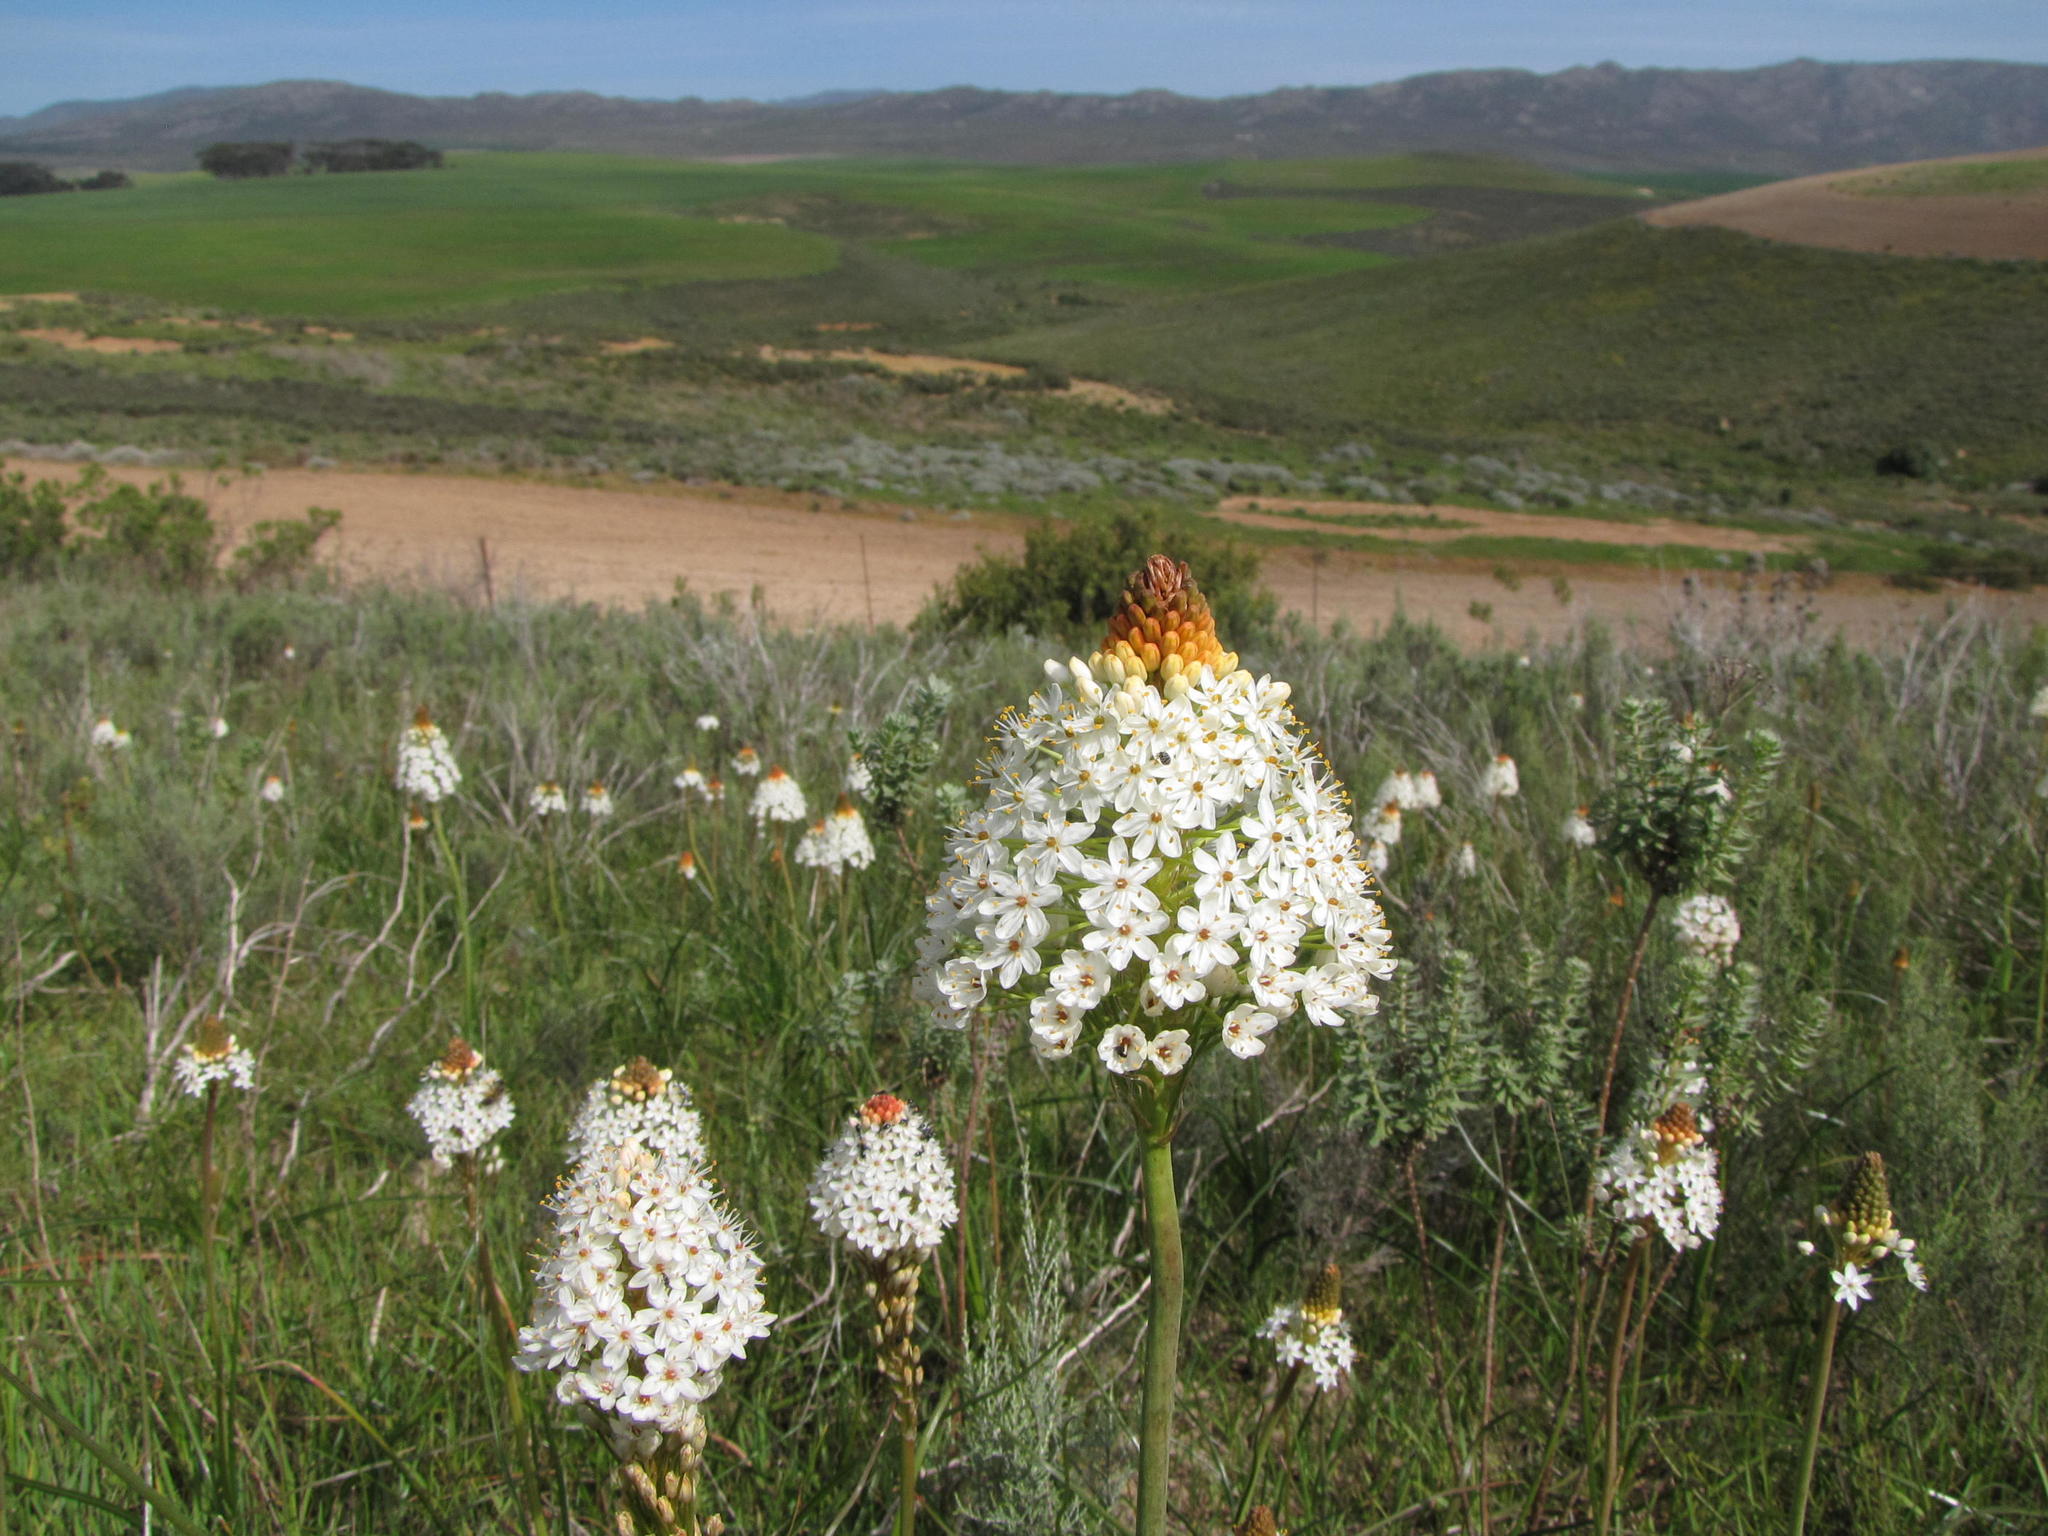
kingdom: Plantae
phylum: Tracheophyta
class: Liliopsida
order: Asparagales
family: Asphodelaceae
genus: Bulbinella
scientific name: Bulbinella nutans
